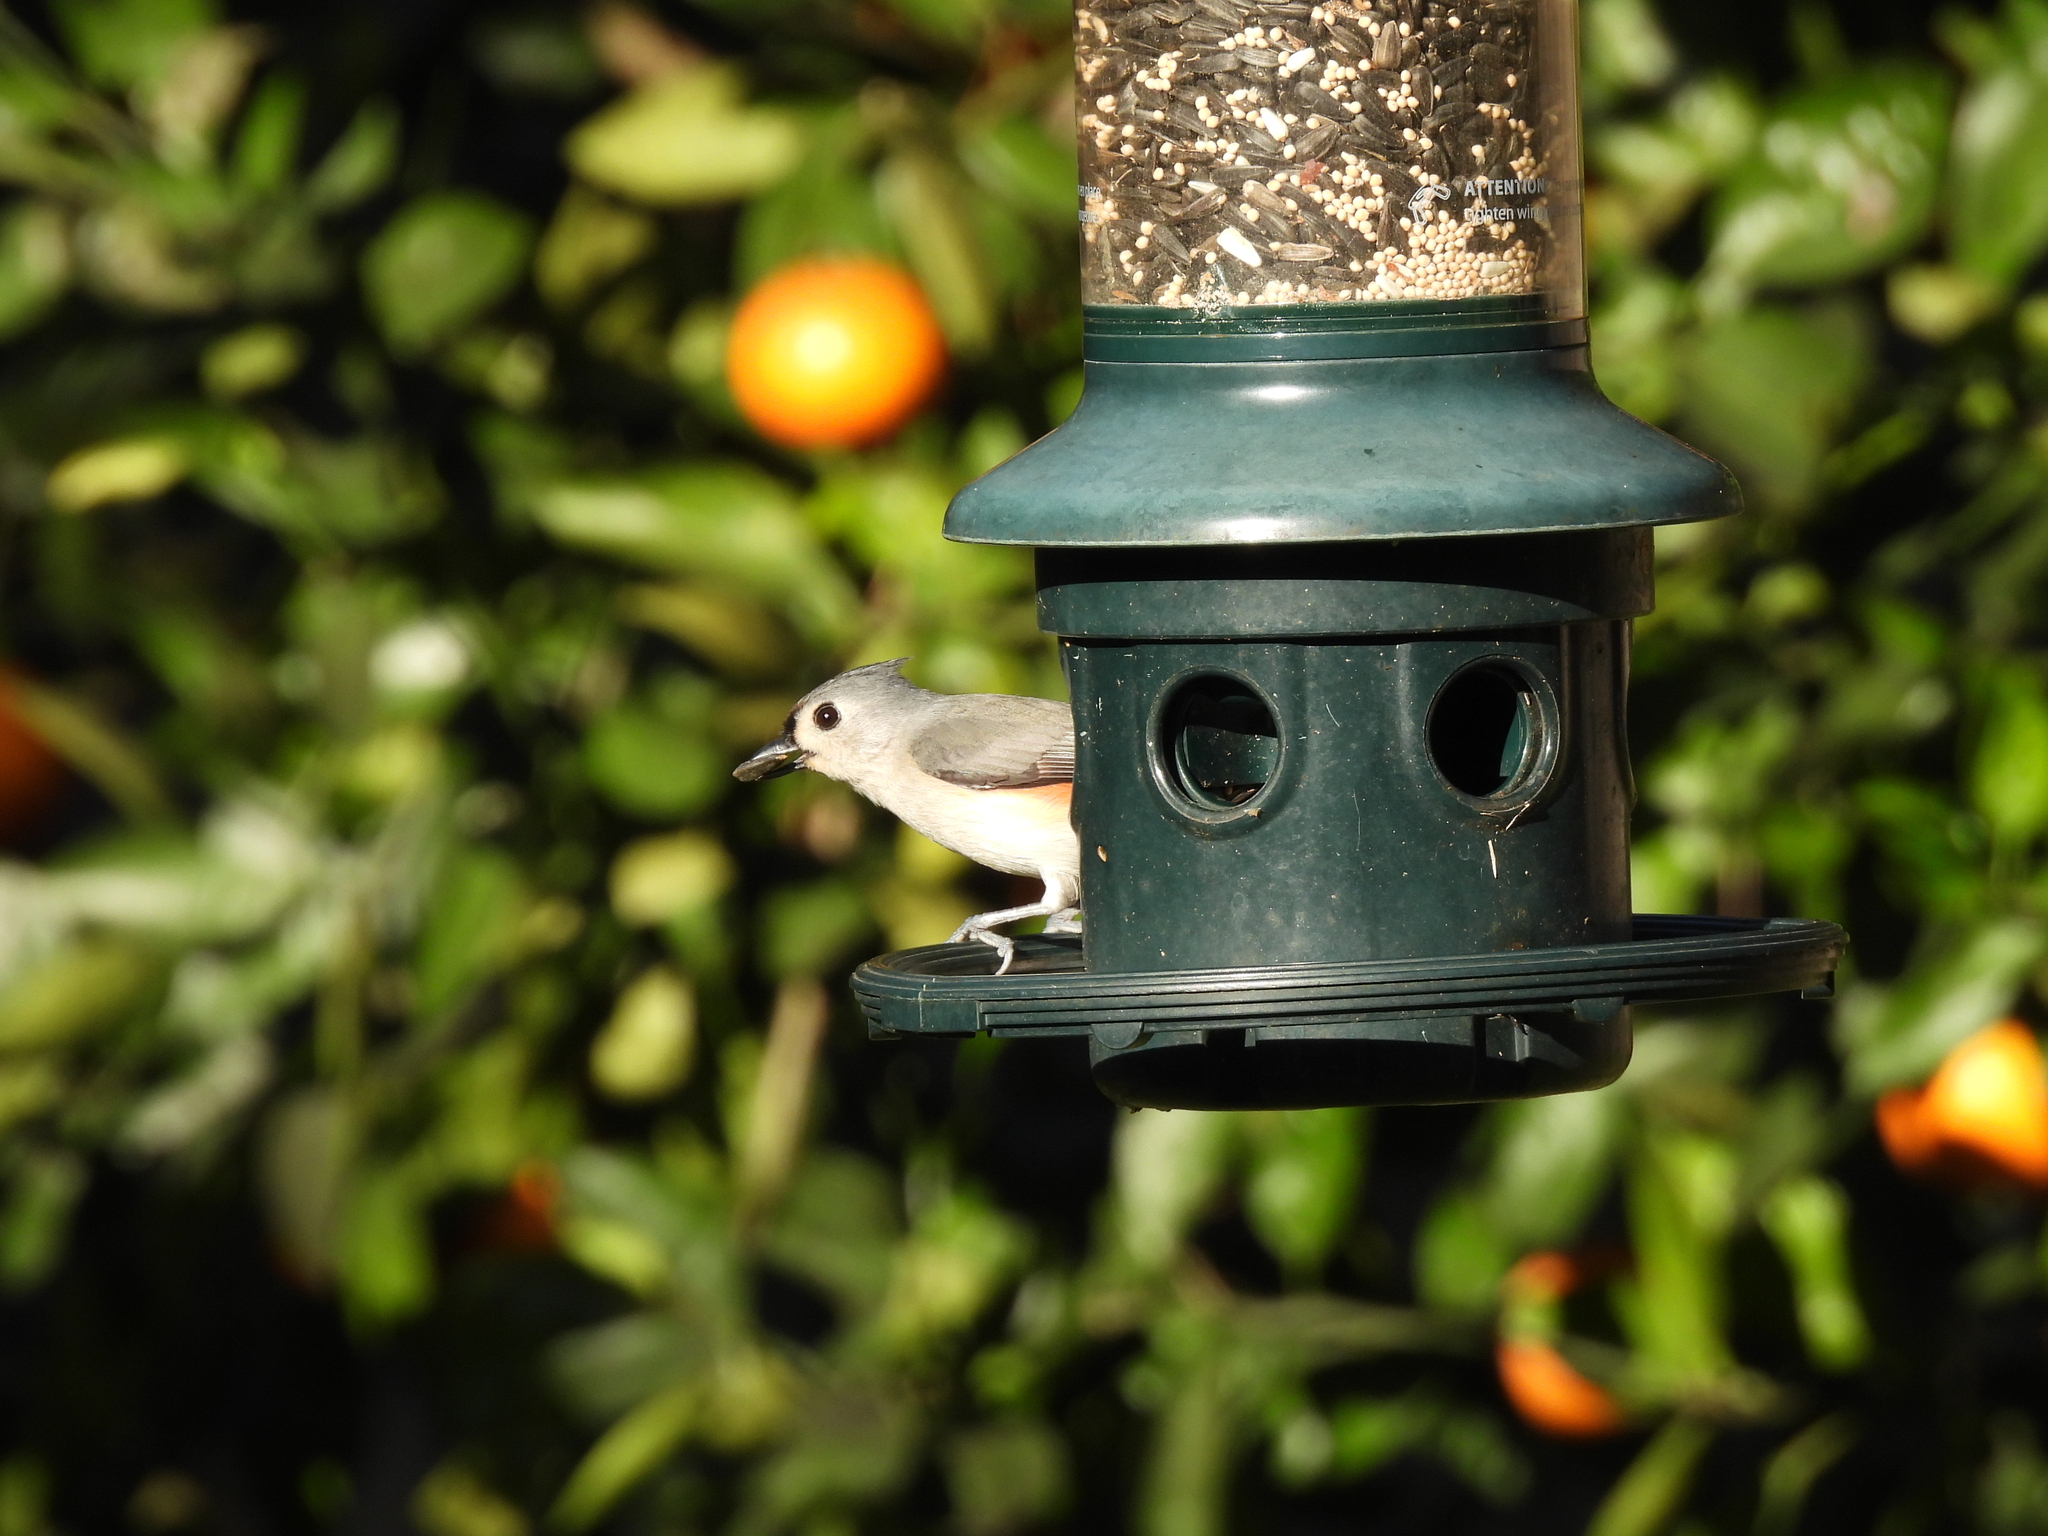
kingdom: Animalia
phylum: Chordata
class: Aves
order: Passeriformes
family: Paridae
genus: Baeolophus
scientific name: Baeolophus bicolor
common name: Tufted titmouse
